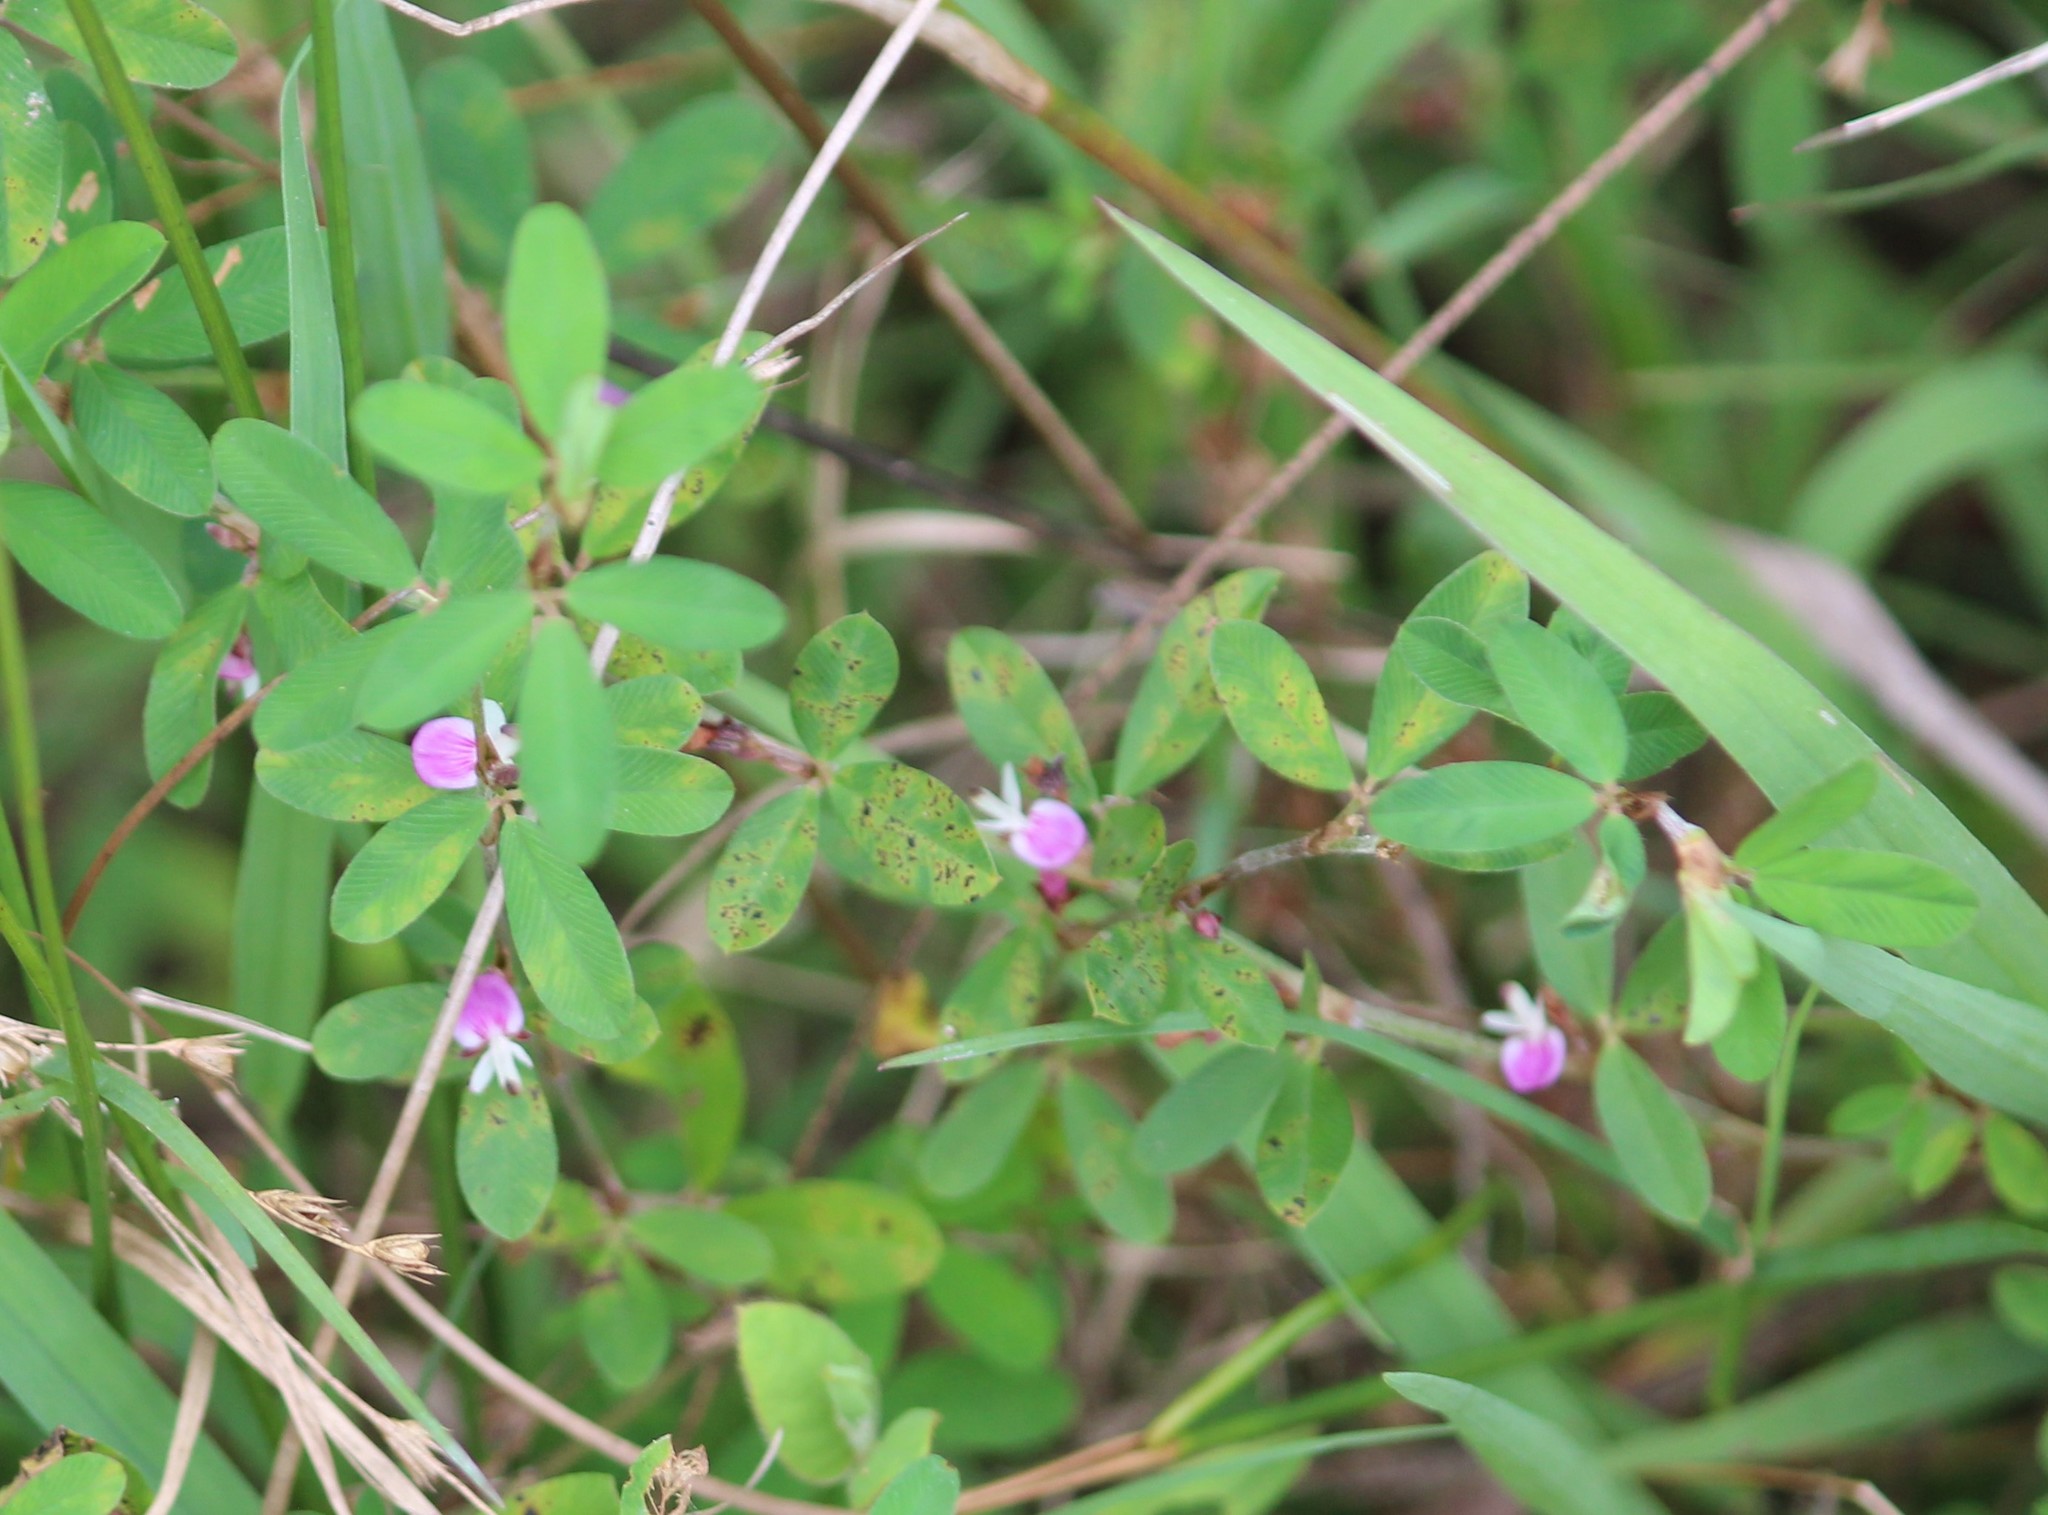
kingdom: Plantae
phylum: Tracheophyta
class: Magnoliopsida
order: Fabales
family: Fabaceae
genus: Kummerowia
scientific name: Kummerowia striata
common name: Japanese clover
